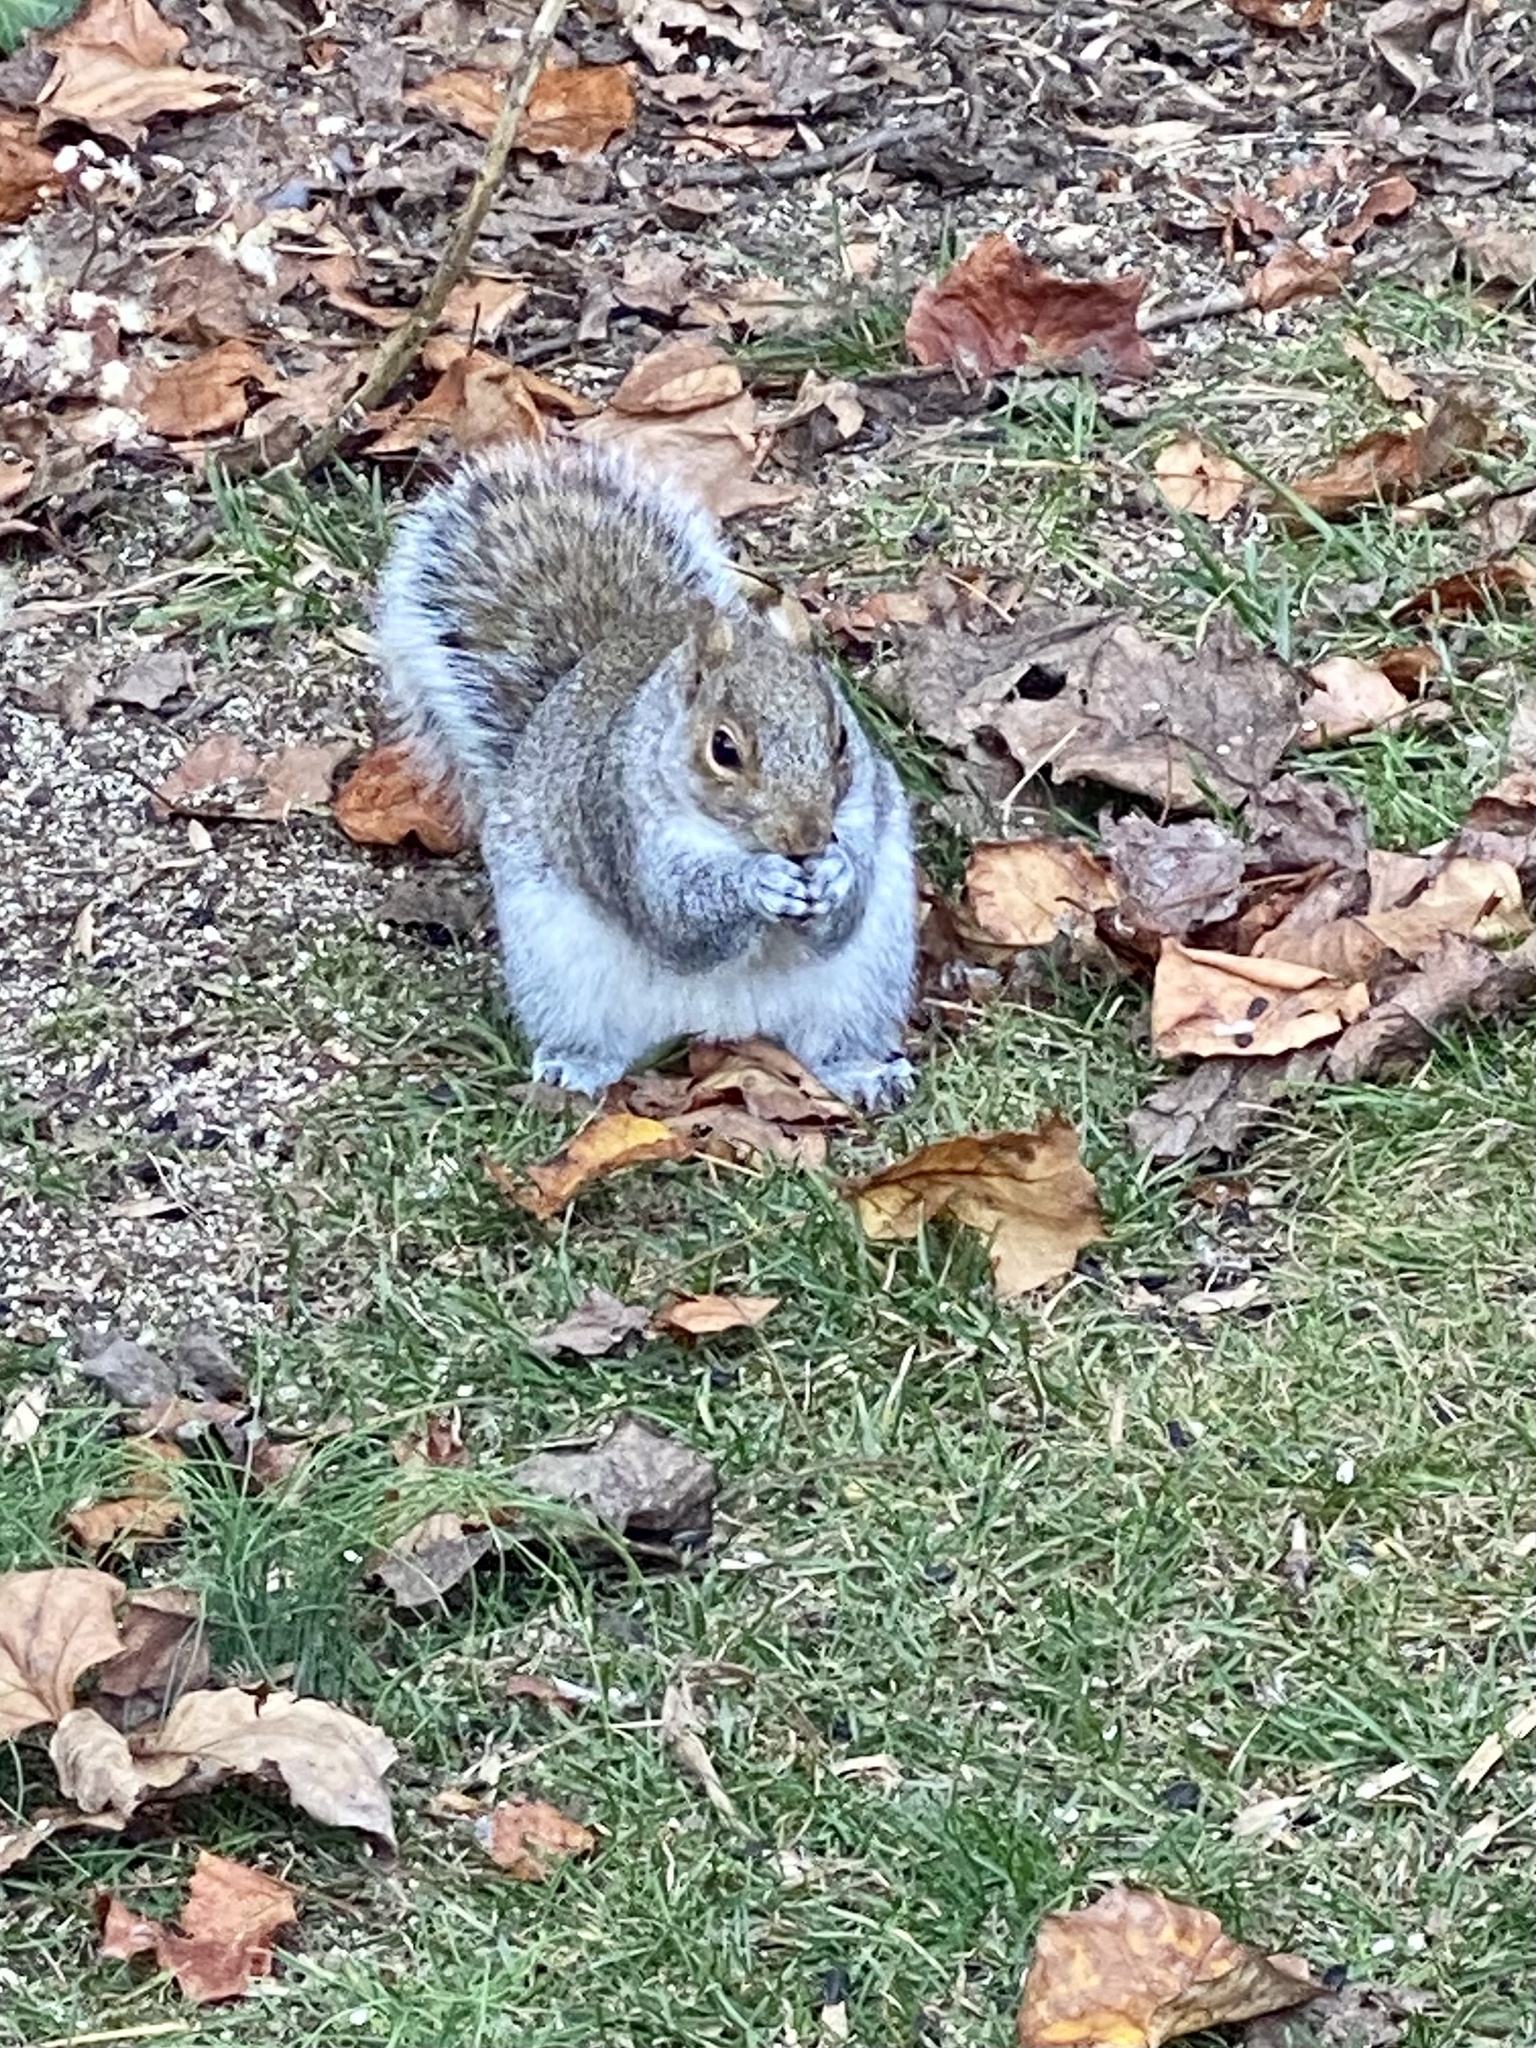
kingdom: Animalia
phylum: Chordata
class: Mammalia
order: Rodentia
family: Sciuridae
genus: Sciurus
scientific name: Sciurus carolinensis
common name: Eastern gray squirrel
